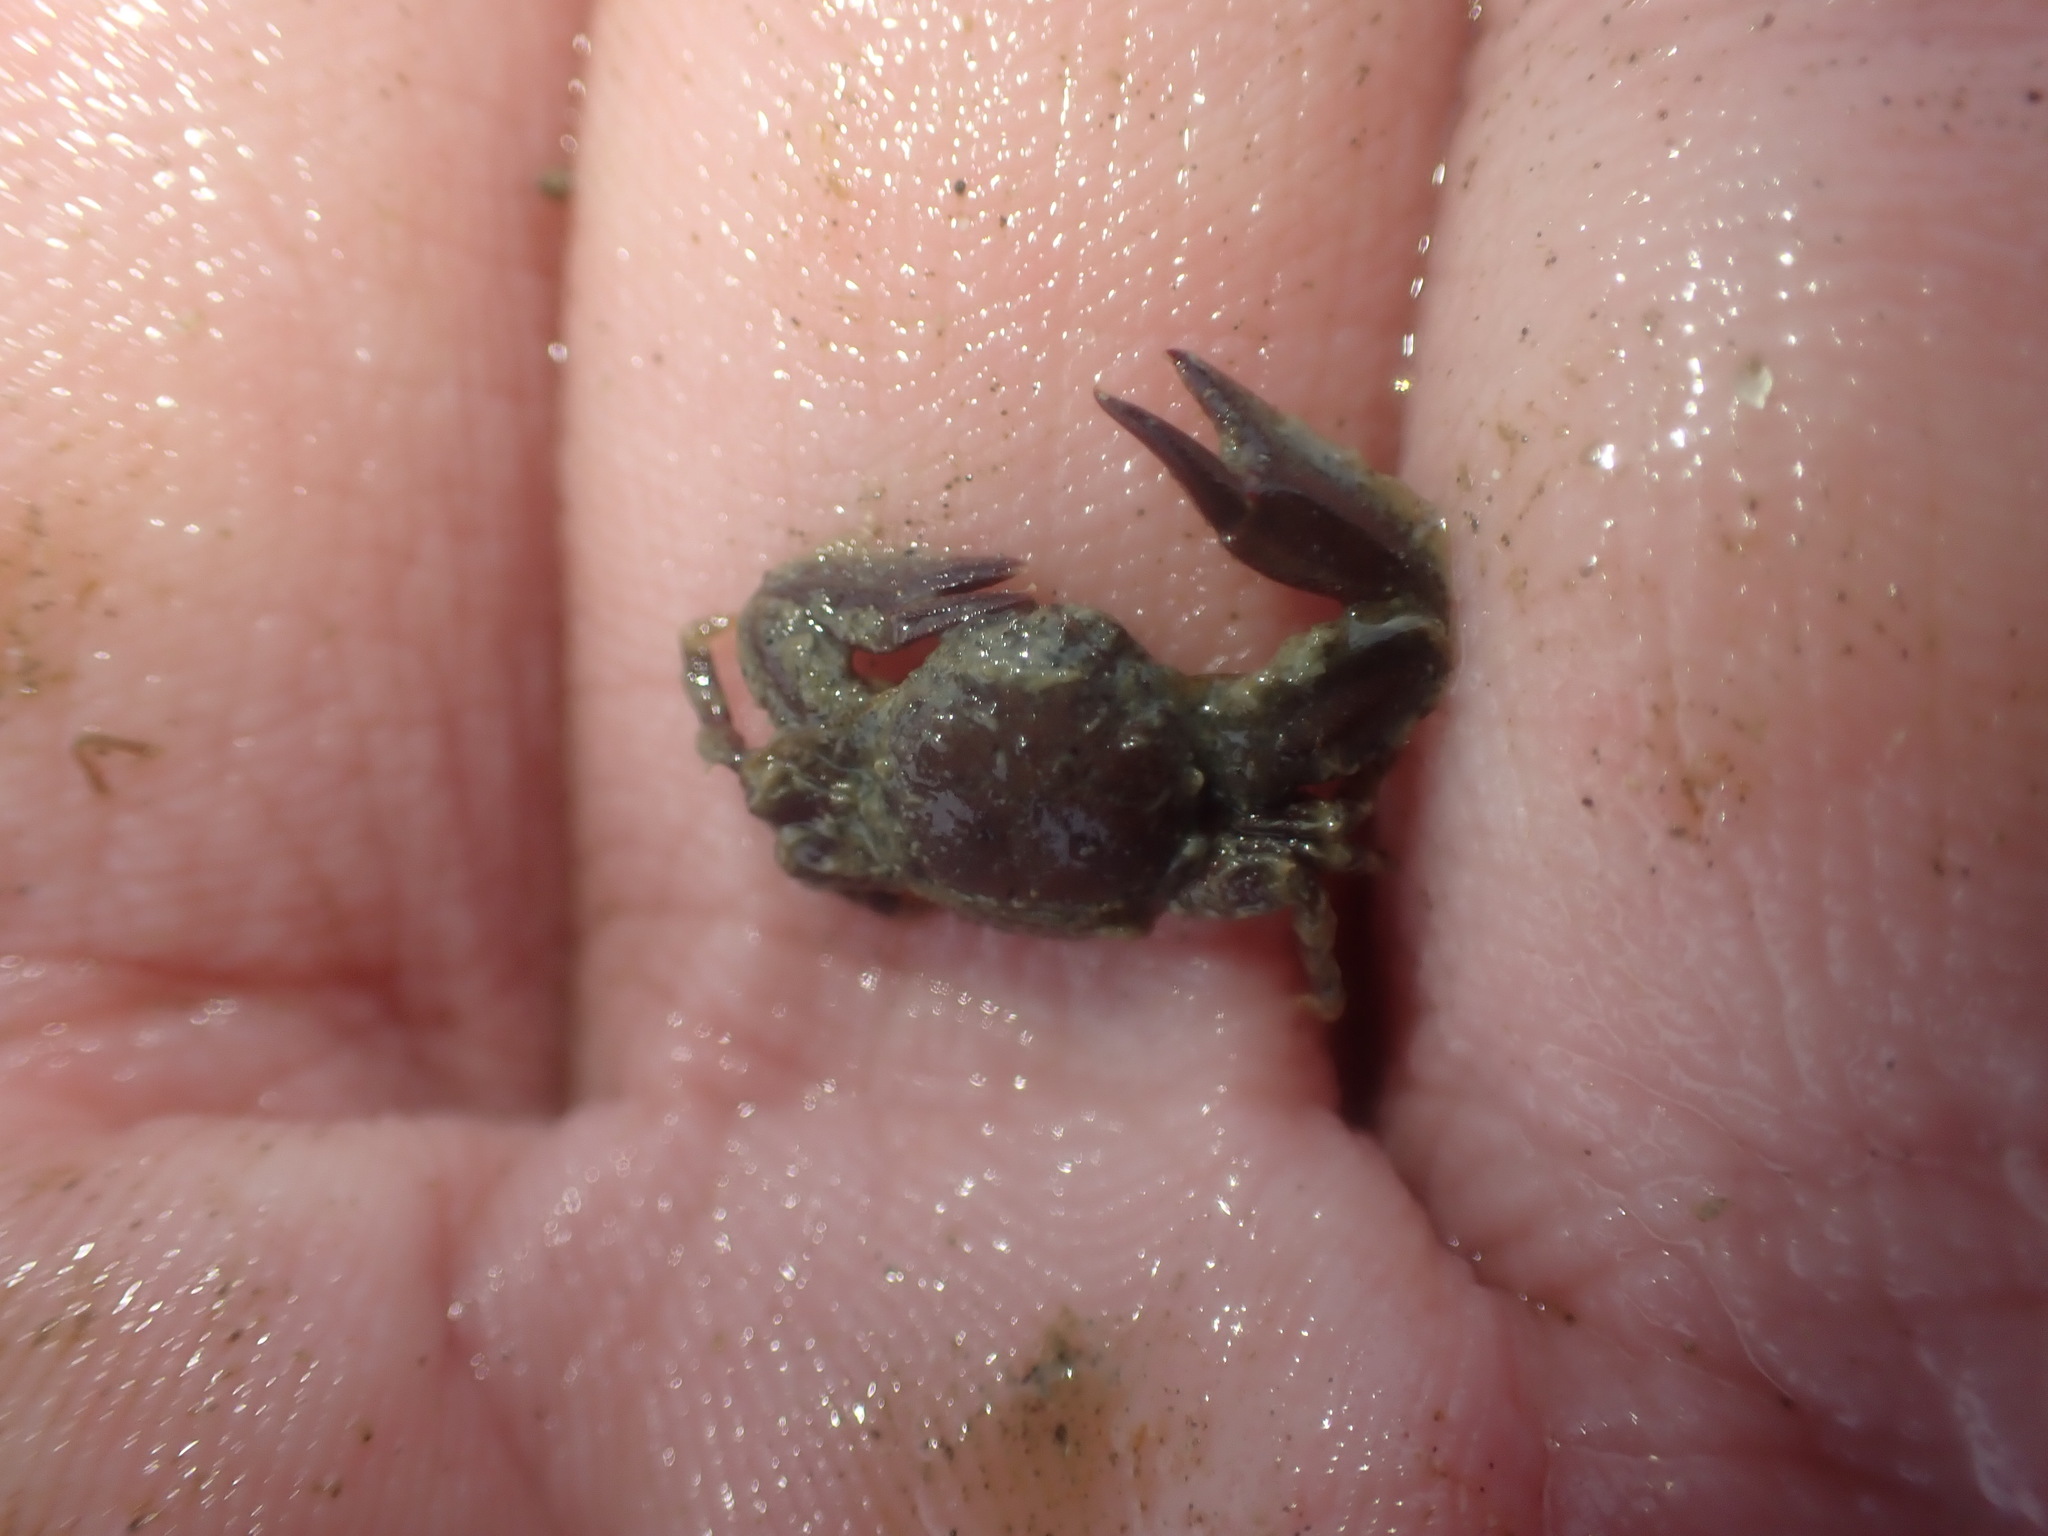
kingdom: Animalia
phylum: Arthropoda
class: Malacostraca
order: Decapoda
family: Porcellanidae
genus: Petrolisthes
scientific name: Petrolisthes novaezelandiae
